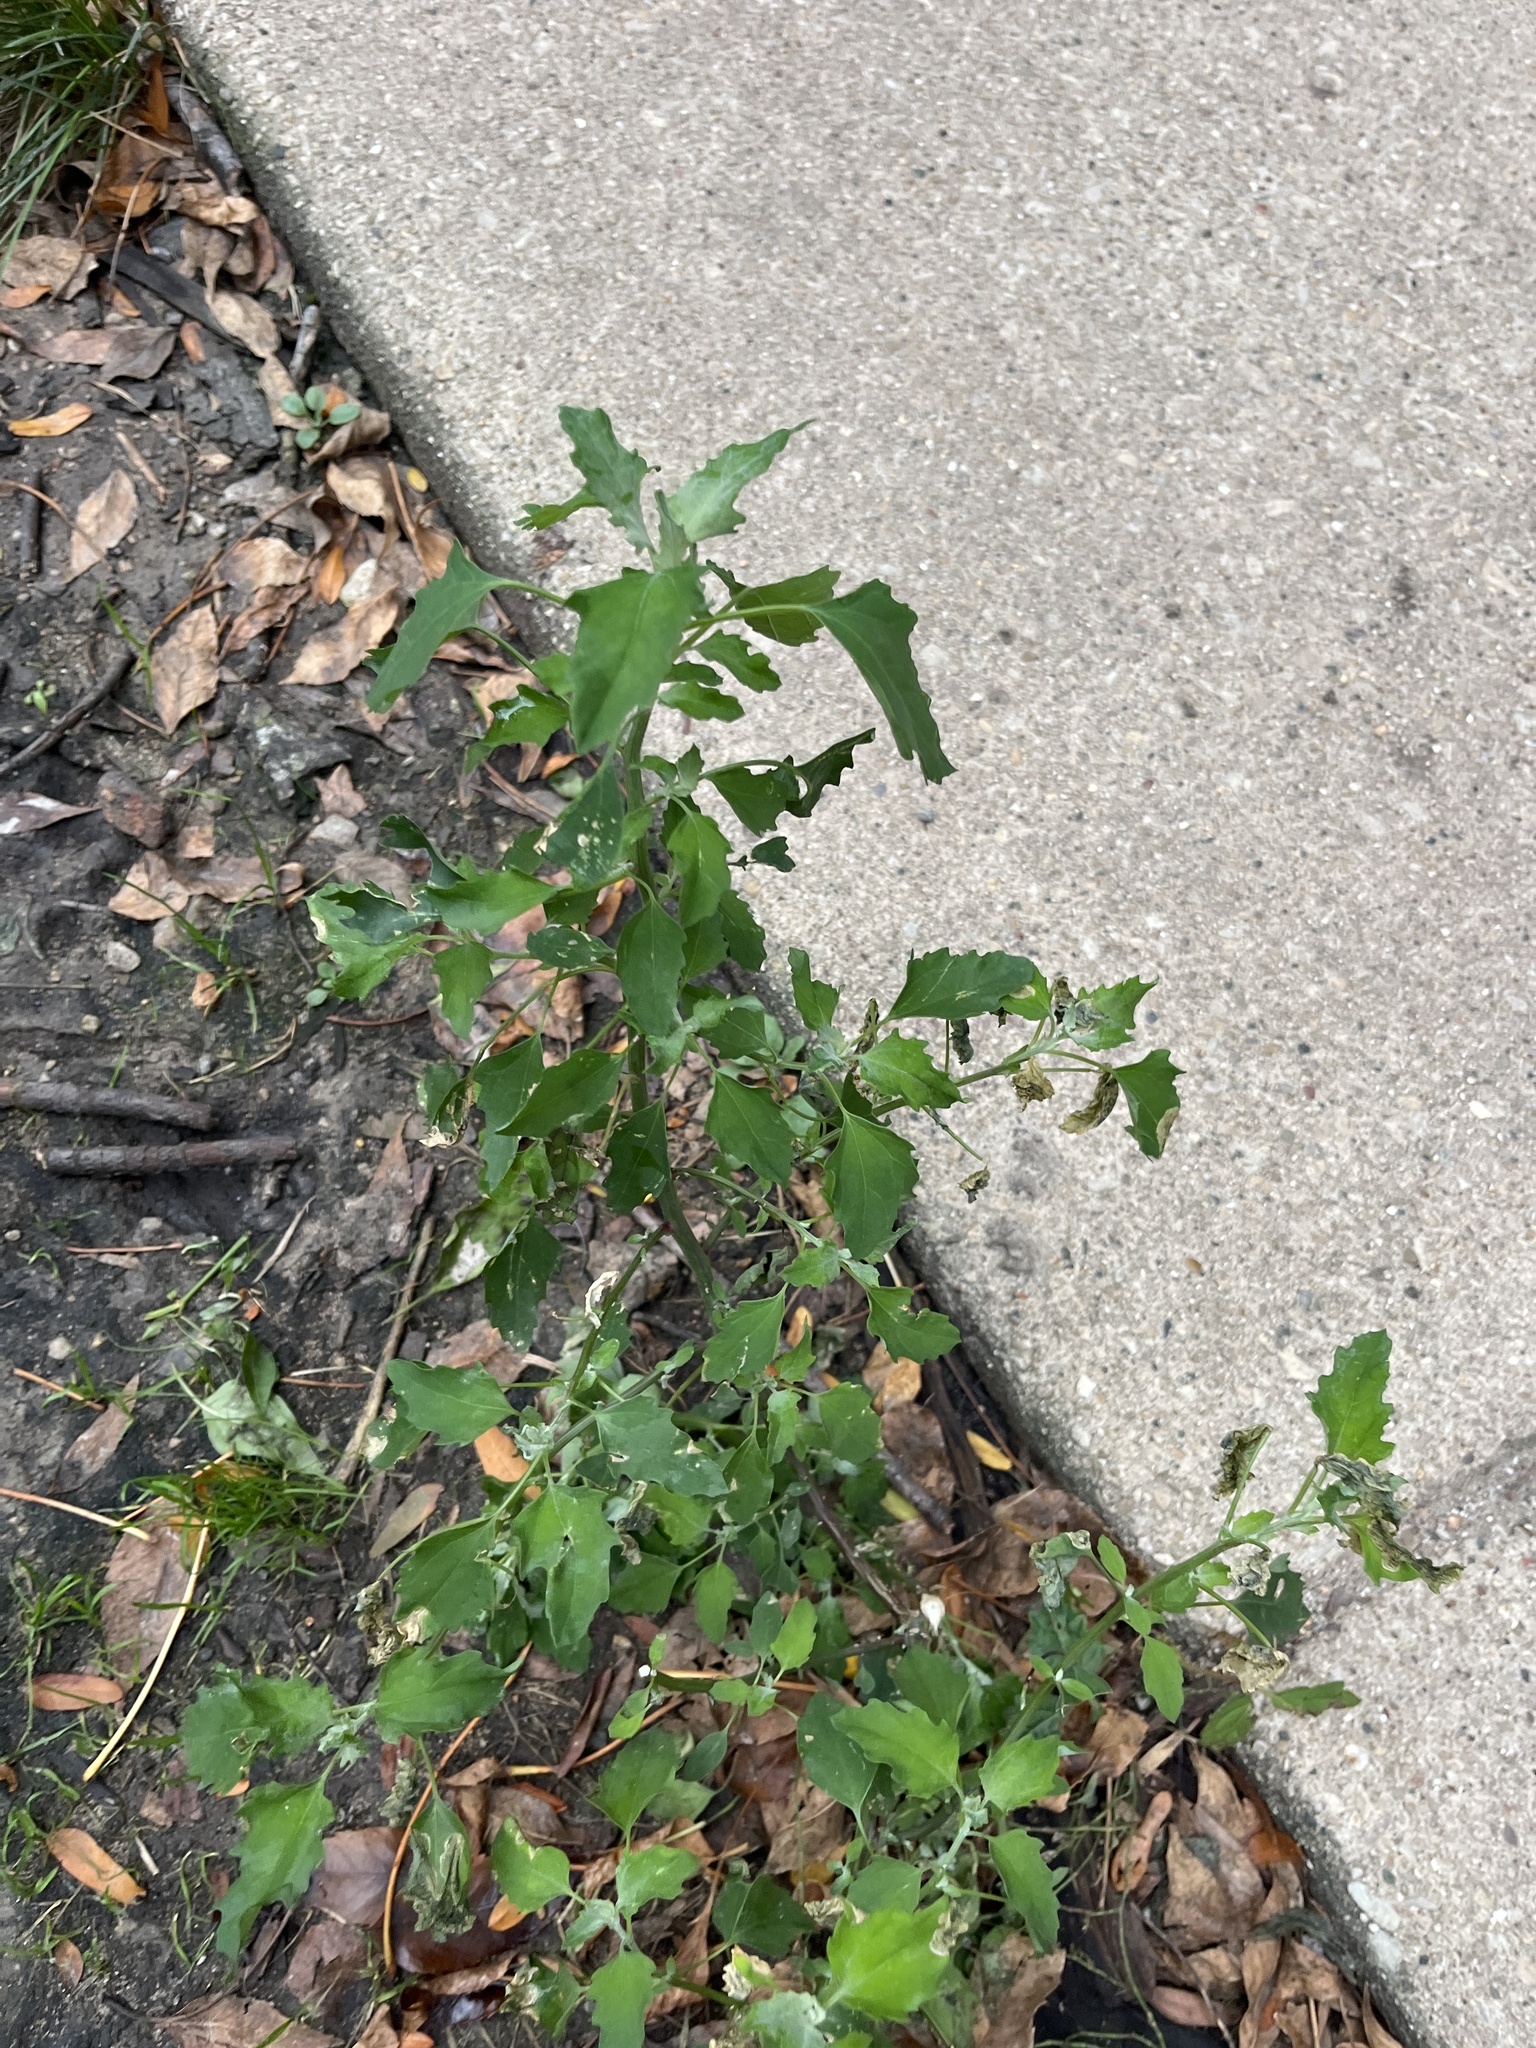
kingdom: Plantae
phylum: Tracheophyta
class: Magnoliopsida
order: Caryophyllales
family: Amaranthaceae
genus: Chenopodium
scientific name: Chenopodium album
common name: Fat-hen
